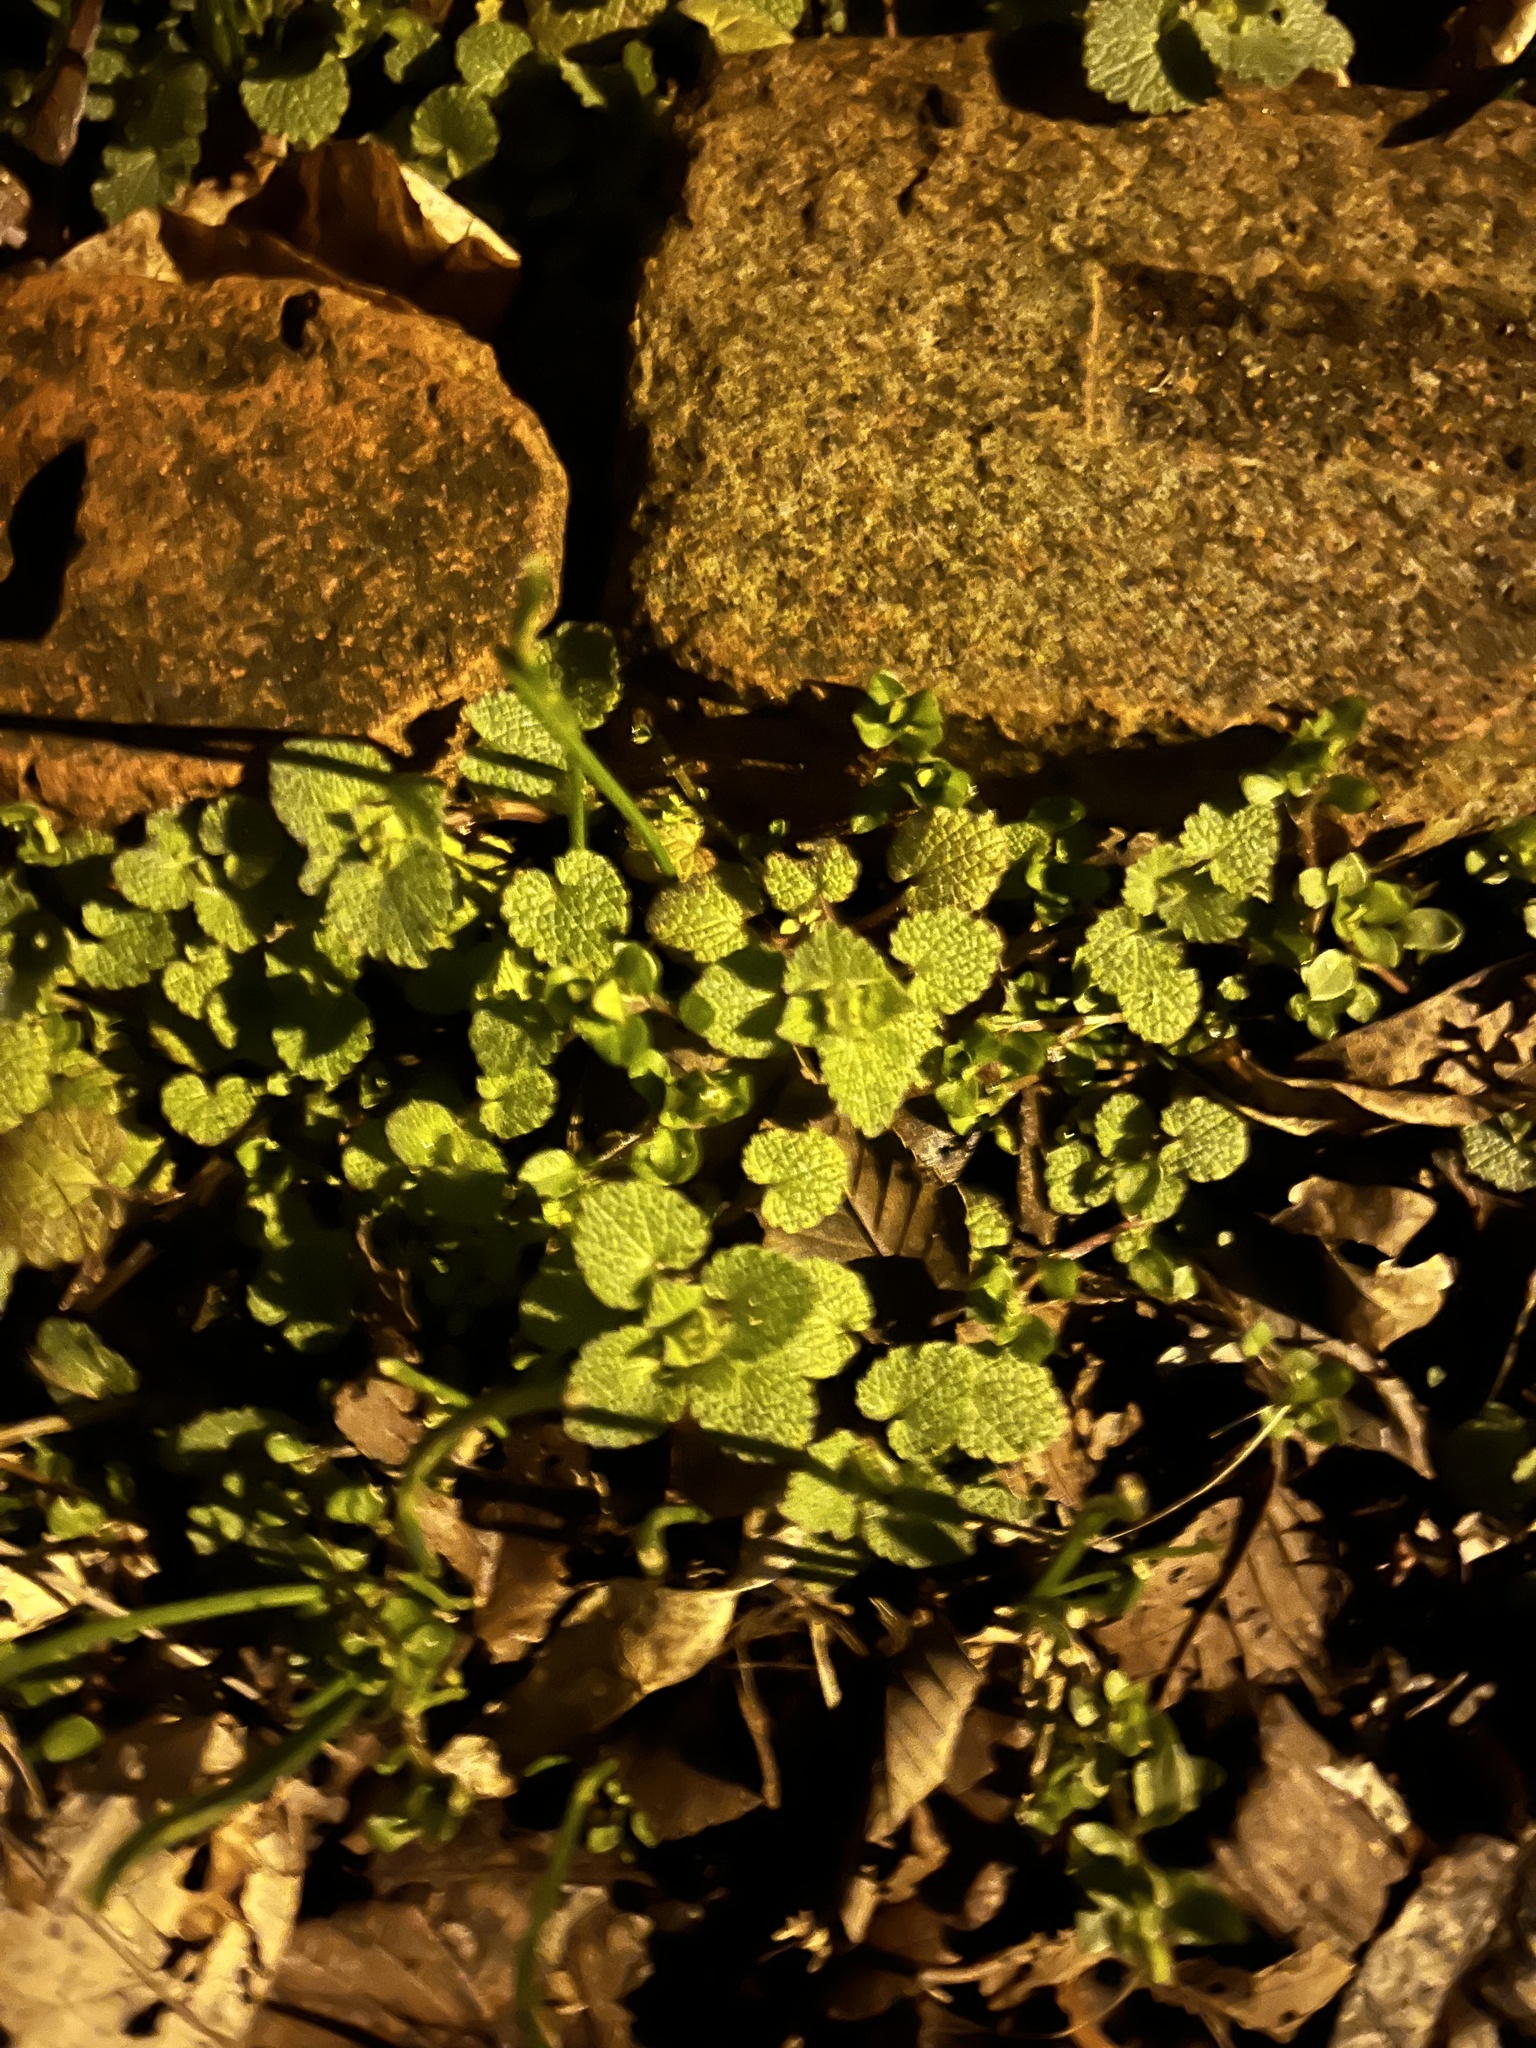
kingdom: Plantae
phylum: Tracheophyta
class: Magnoliopsida
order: Lamiales
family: Lamiaceae
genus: Lamium
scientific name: Lamium purpureum
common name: Red dead-nettle
